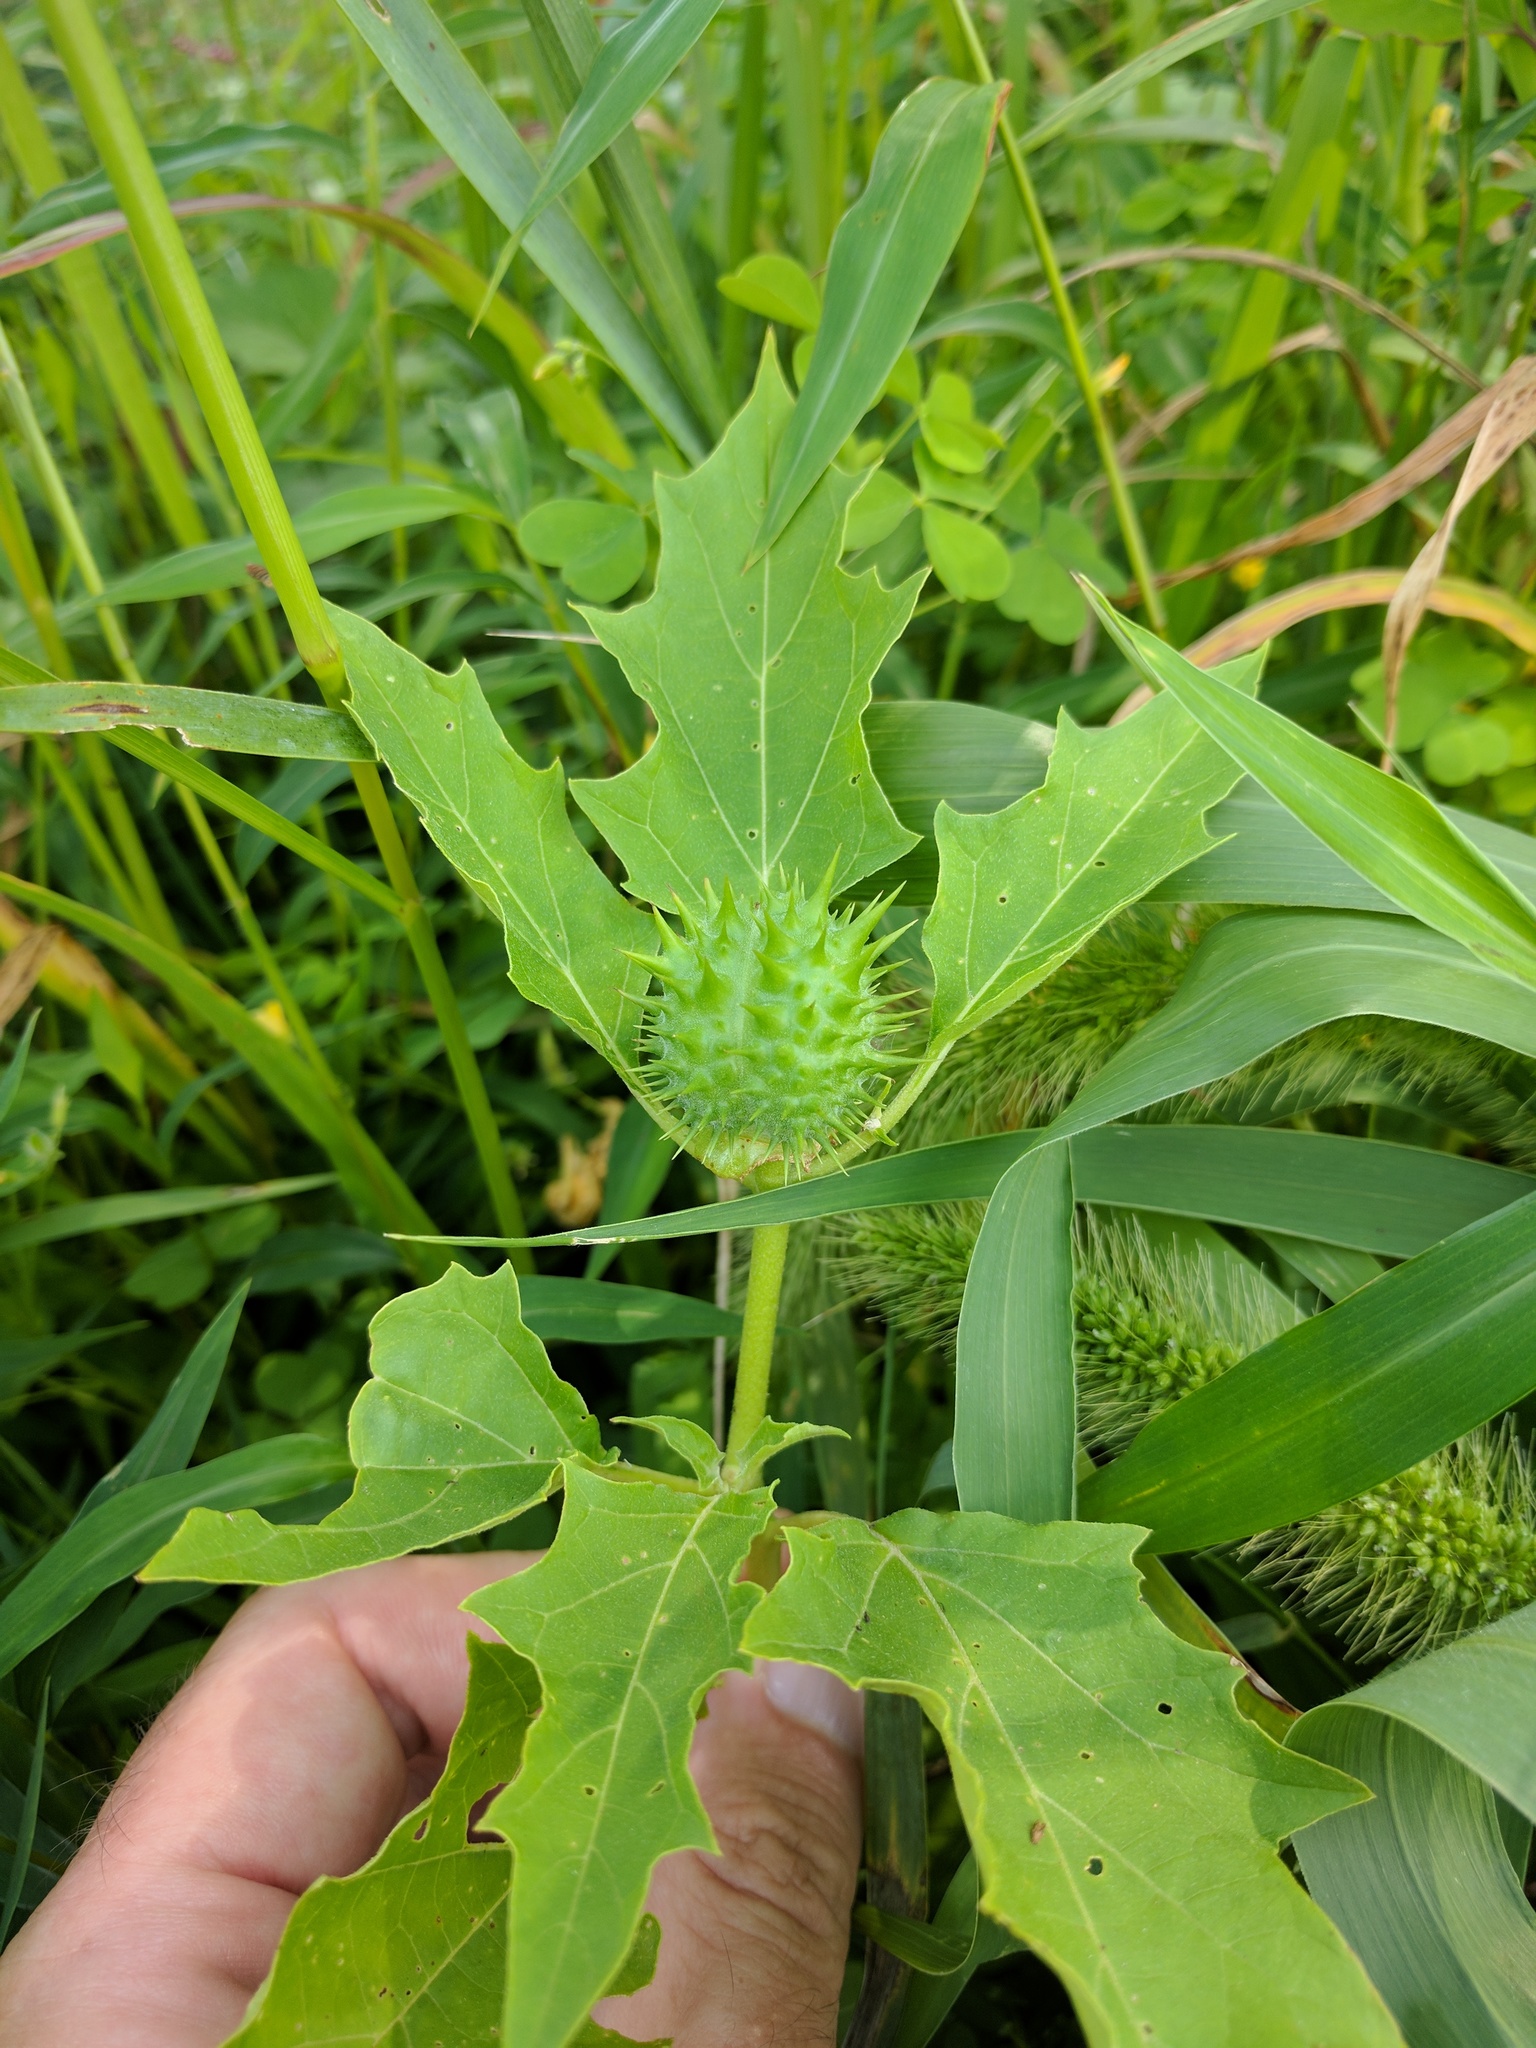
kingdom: Plantae
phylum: Tracheophyta
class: Magnoliopsida
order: Solanales
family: Solanaceae
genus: Datura
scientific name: Datura stramonium
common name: Thorn-apple
